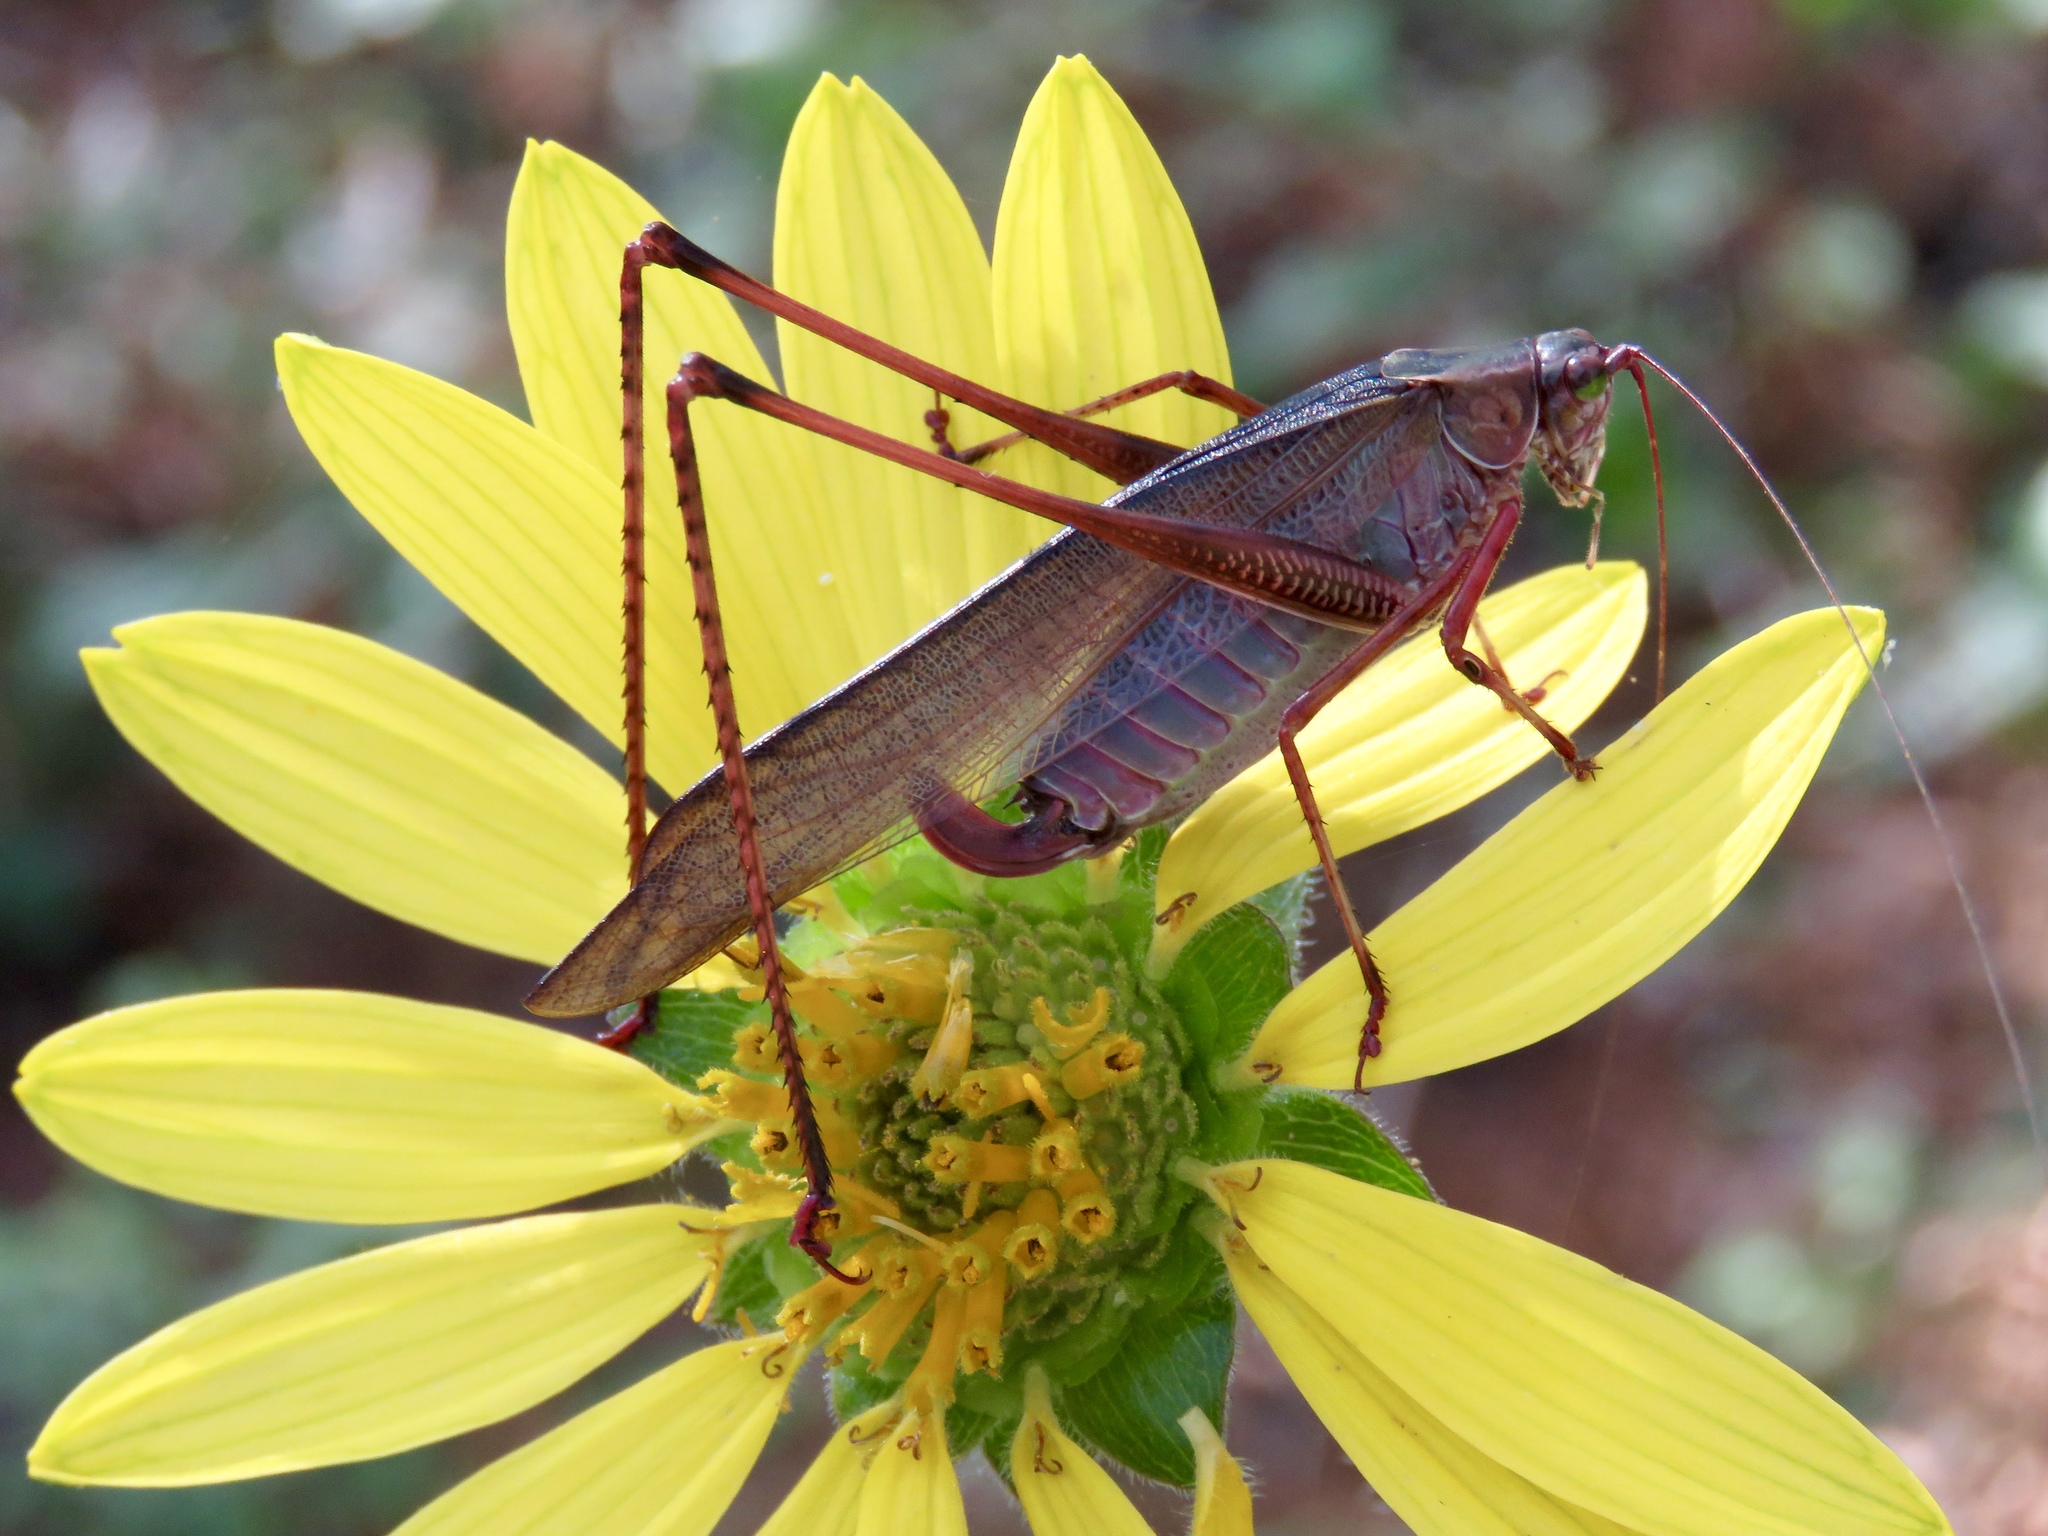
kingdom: Animalia
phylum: Arthropoda
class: Insecta
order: Orthoptera
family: Tettigoniidae
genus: Scudderia
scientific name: Scudderia furcata
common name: Fork-tailed bush katydid
